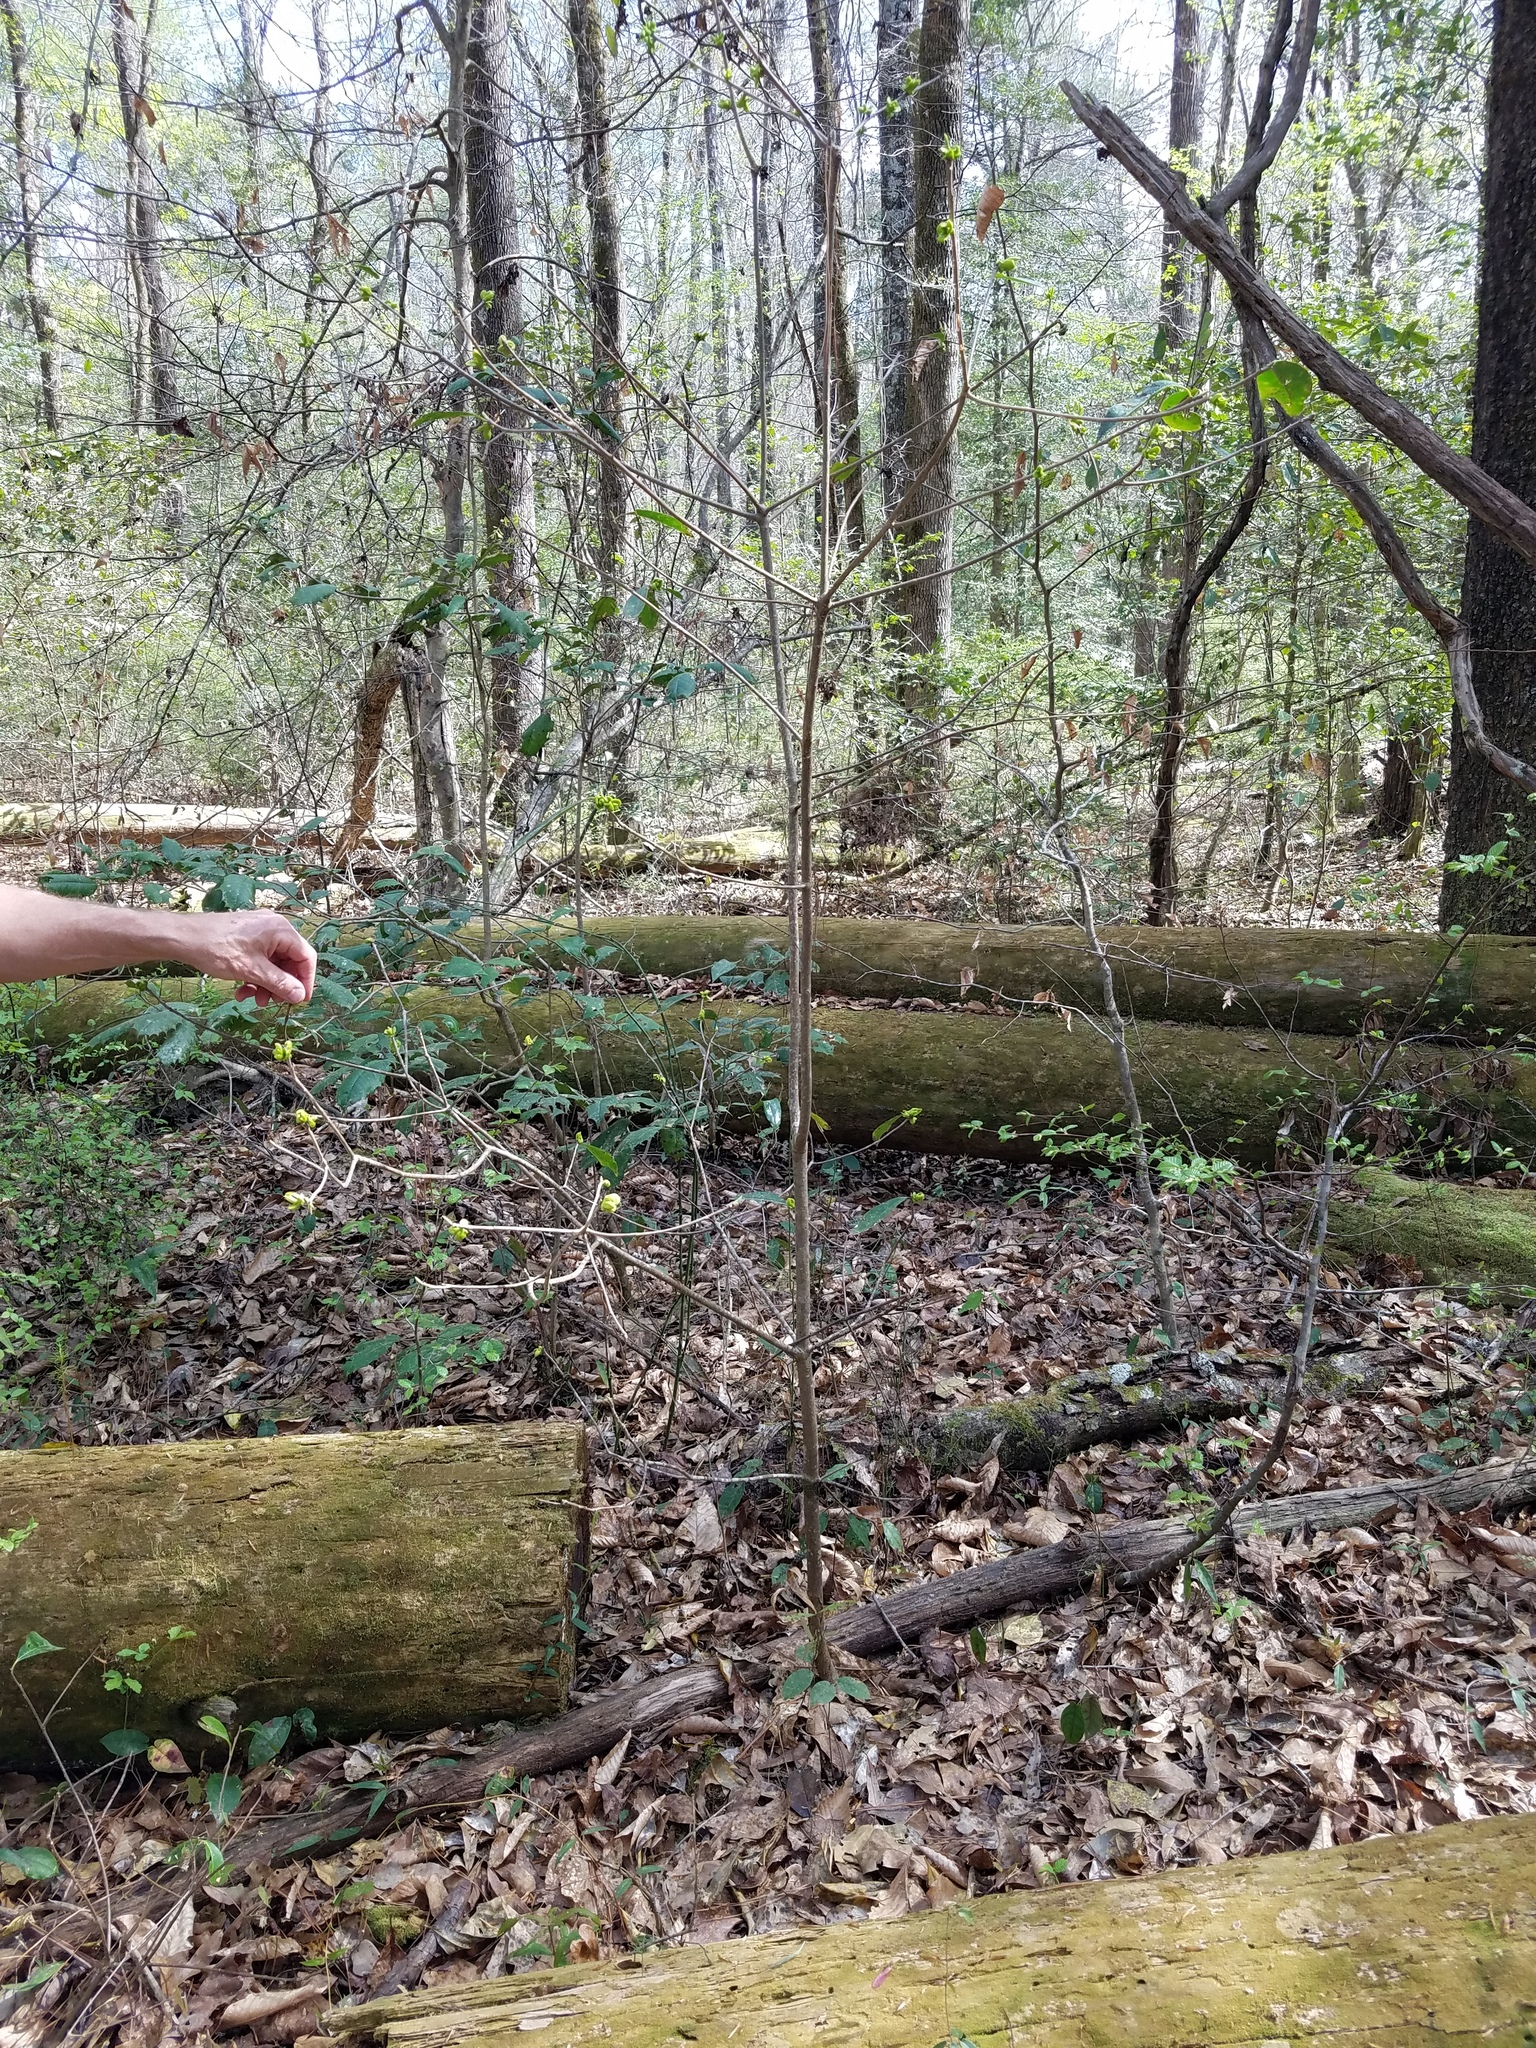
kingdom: Fungi
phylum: Basidiomycota
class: Exobasidiomycetes
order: Exobasidiales
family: Exobasidiaceae
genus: Exobasidium
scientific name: Exobasidium symploci
